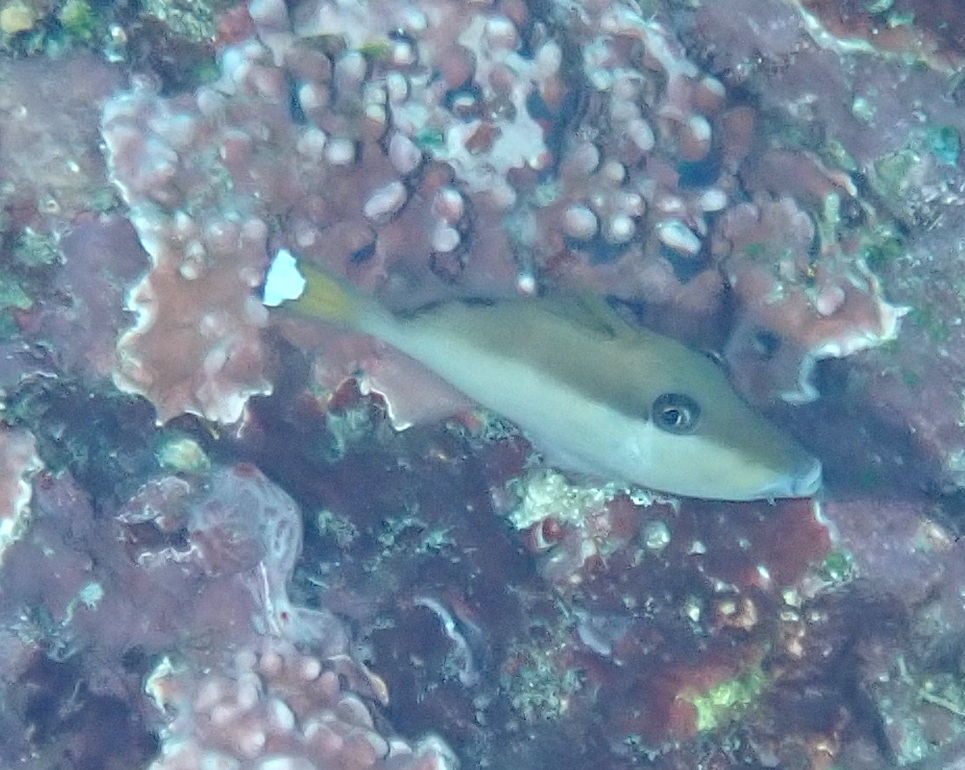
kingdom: Animalia
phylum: Chordata
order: Tetraodontiformes
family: Balistidae
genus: Sufflamen
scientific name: Sufflamen chrysopterum
